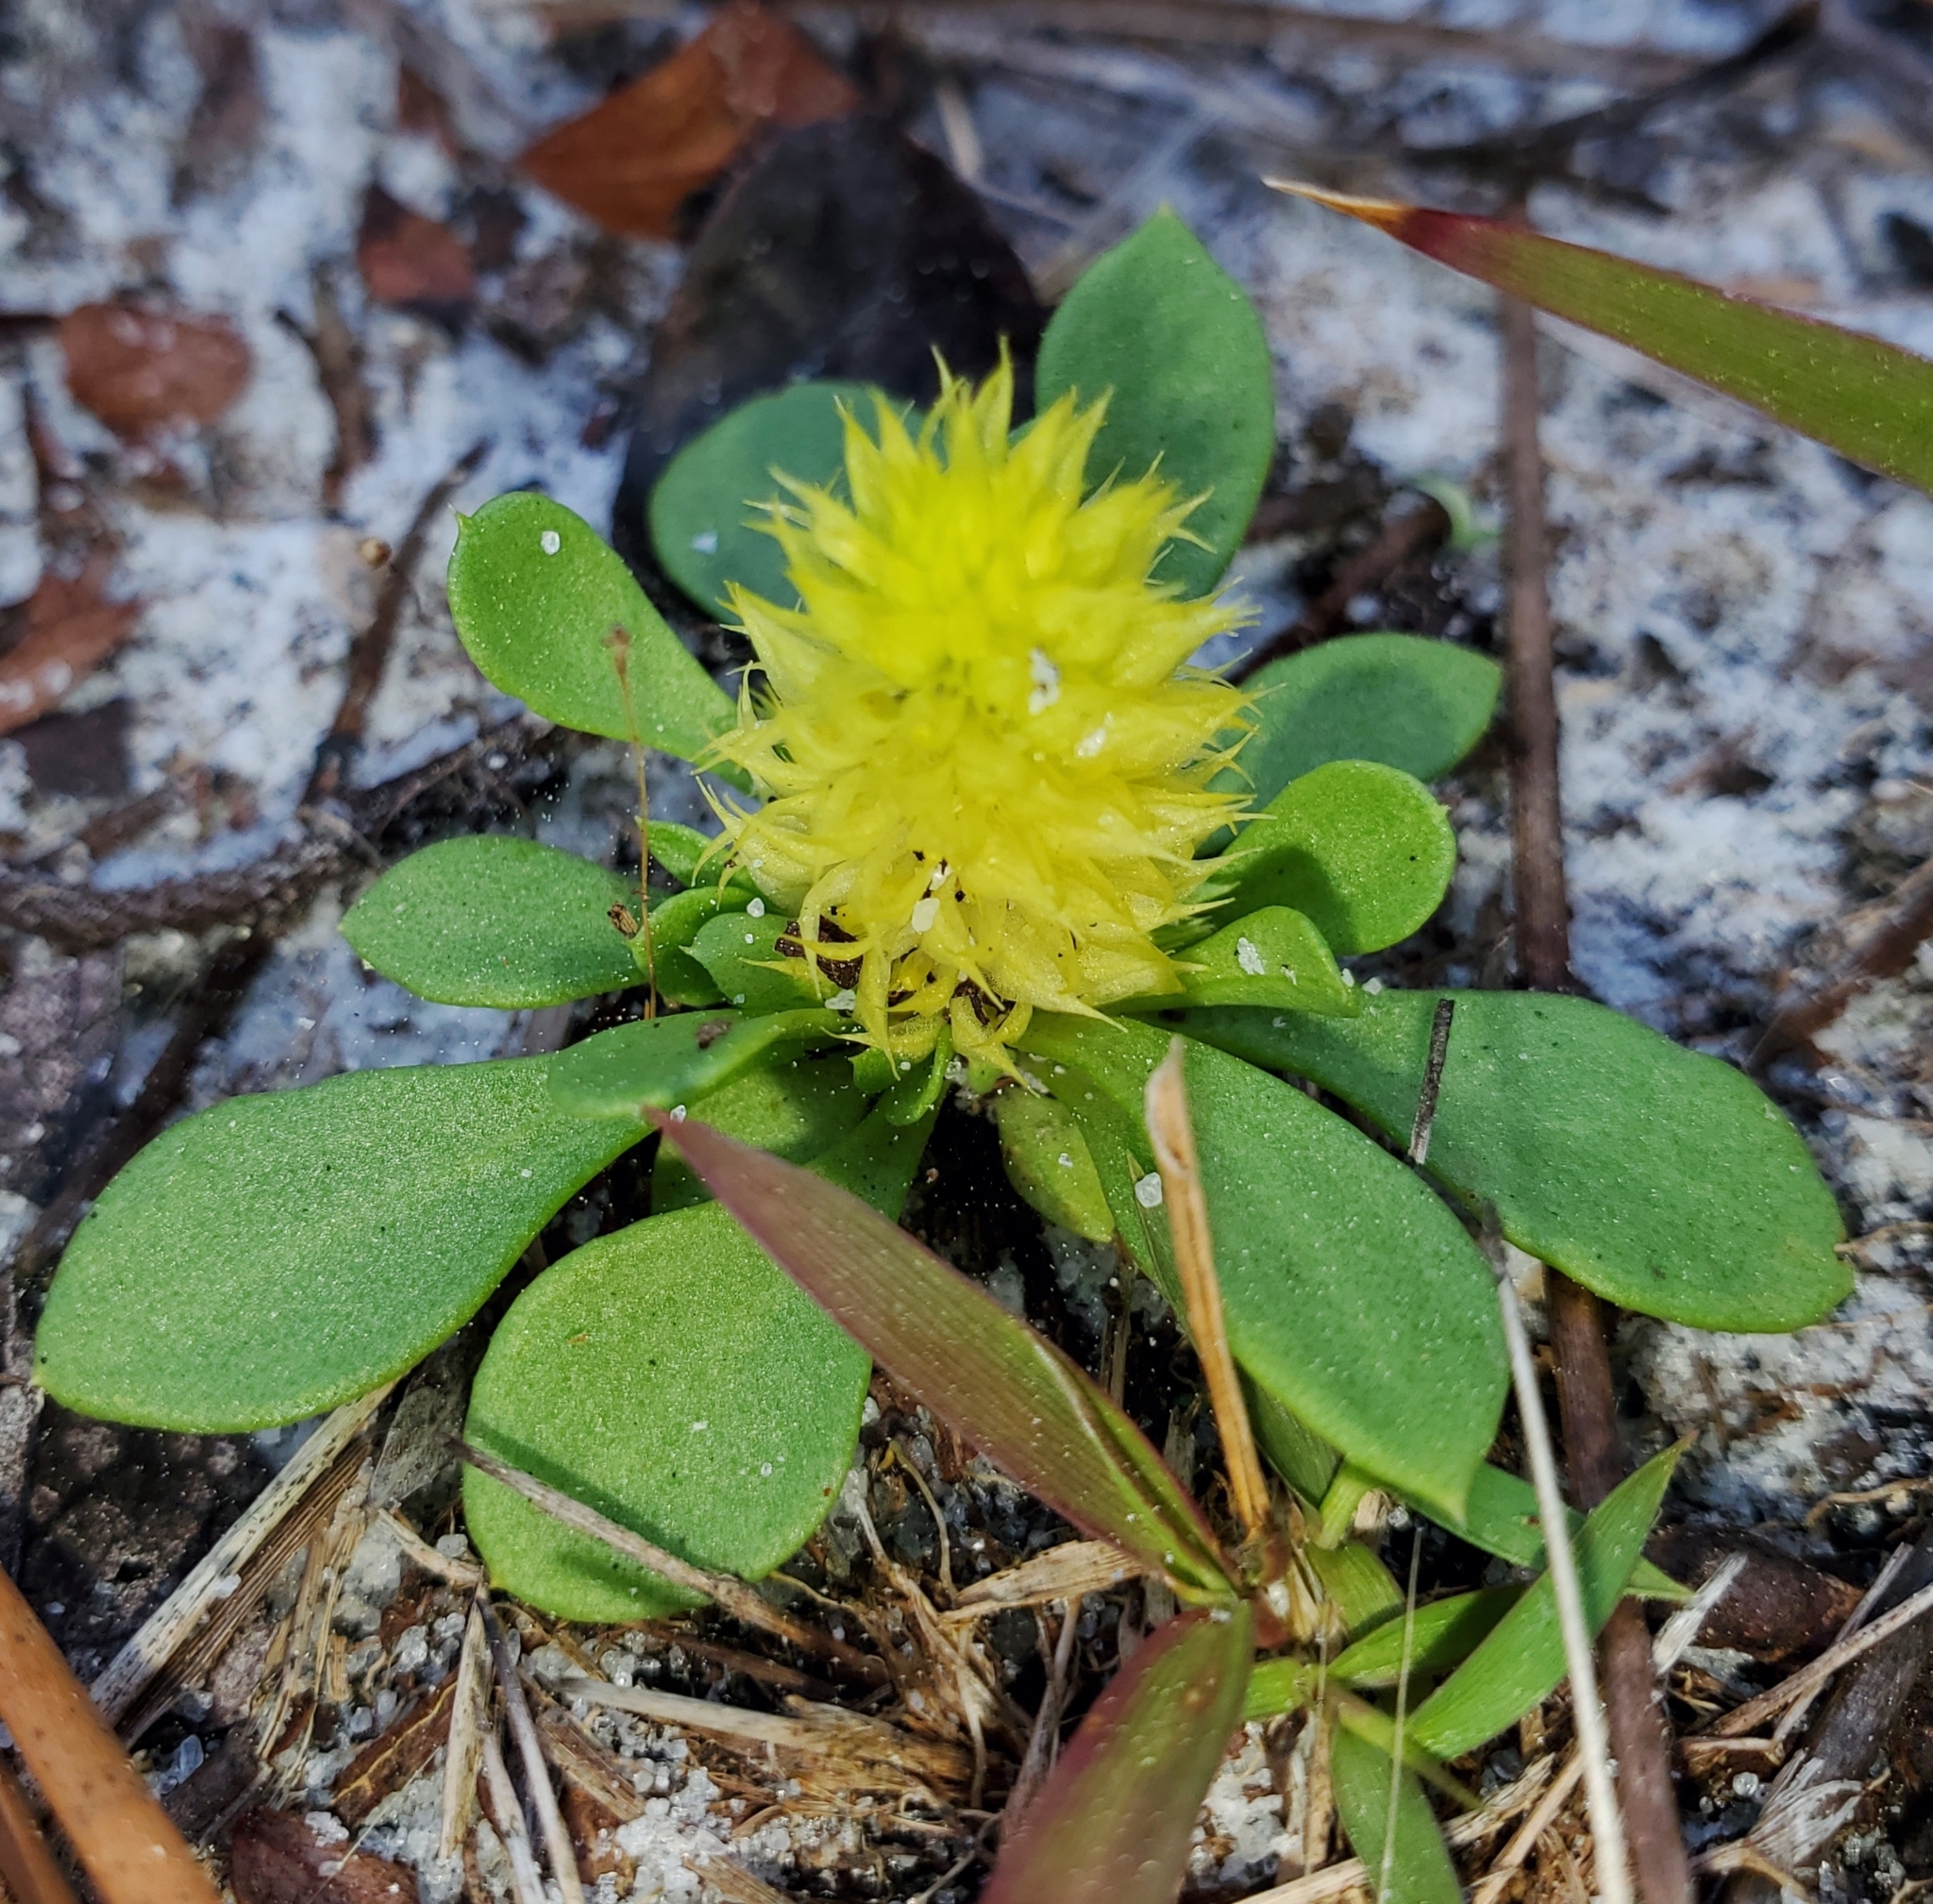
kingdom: Plantae
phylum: Tracheophyta
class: Magnoliopsida
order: Fabales
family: Polygalaceae
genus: Polygala
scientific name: Polygala nana
